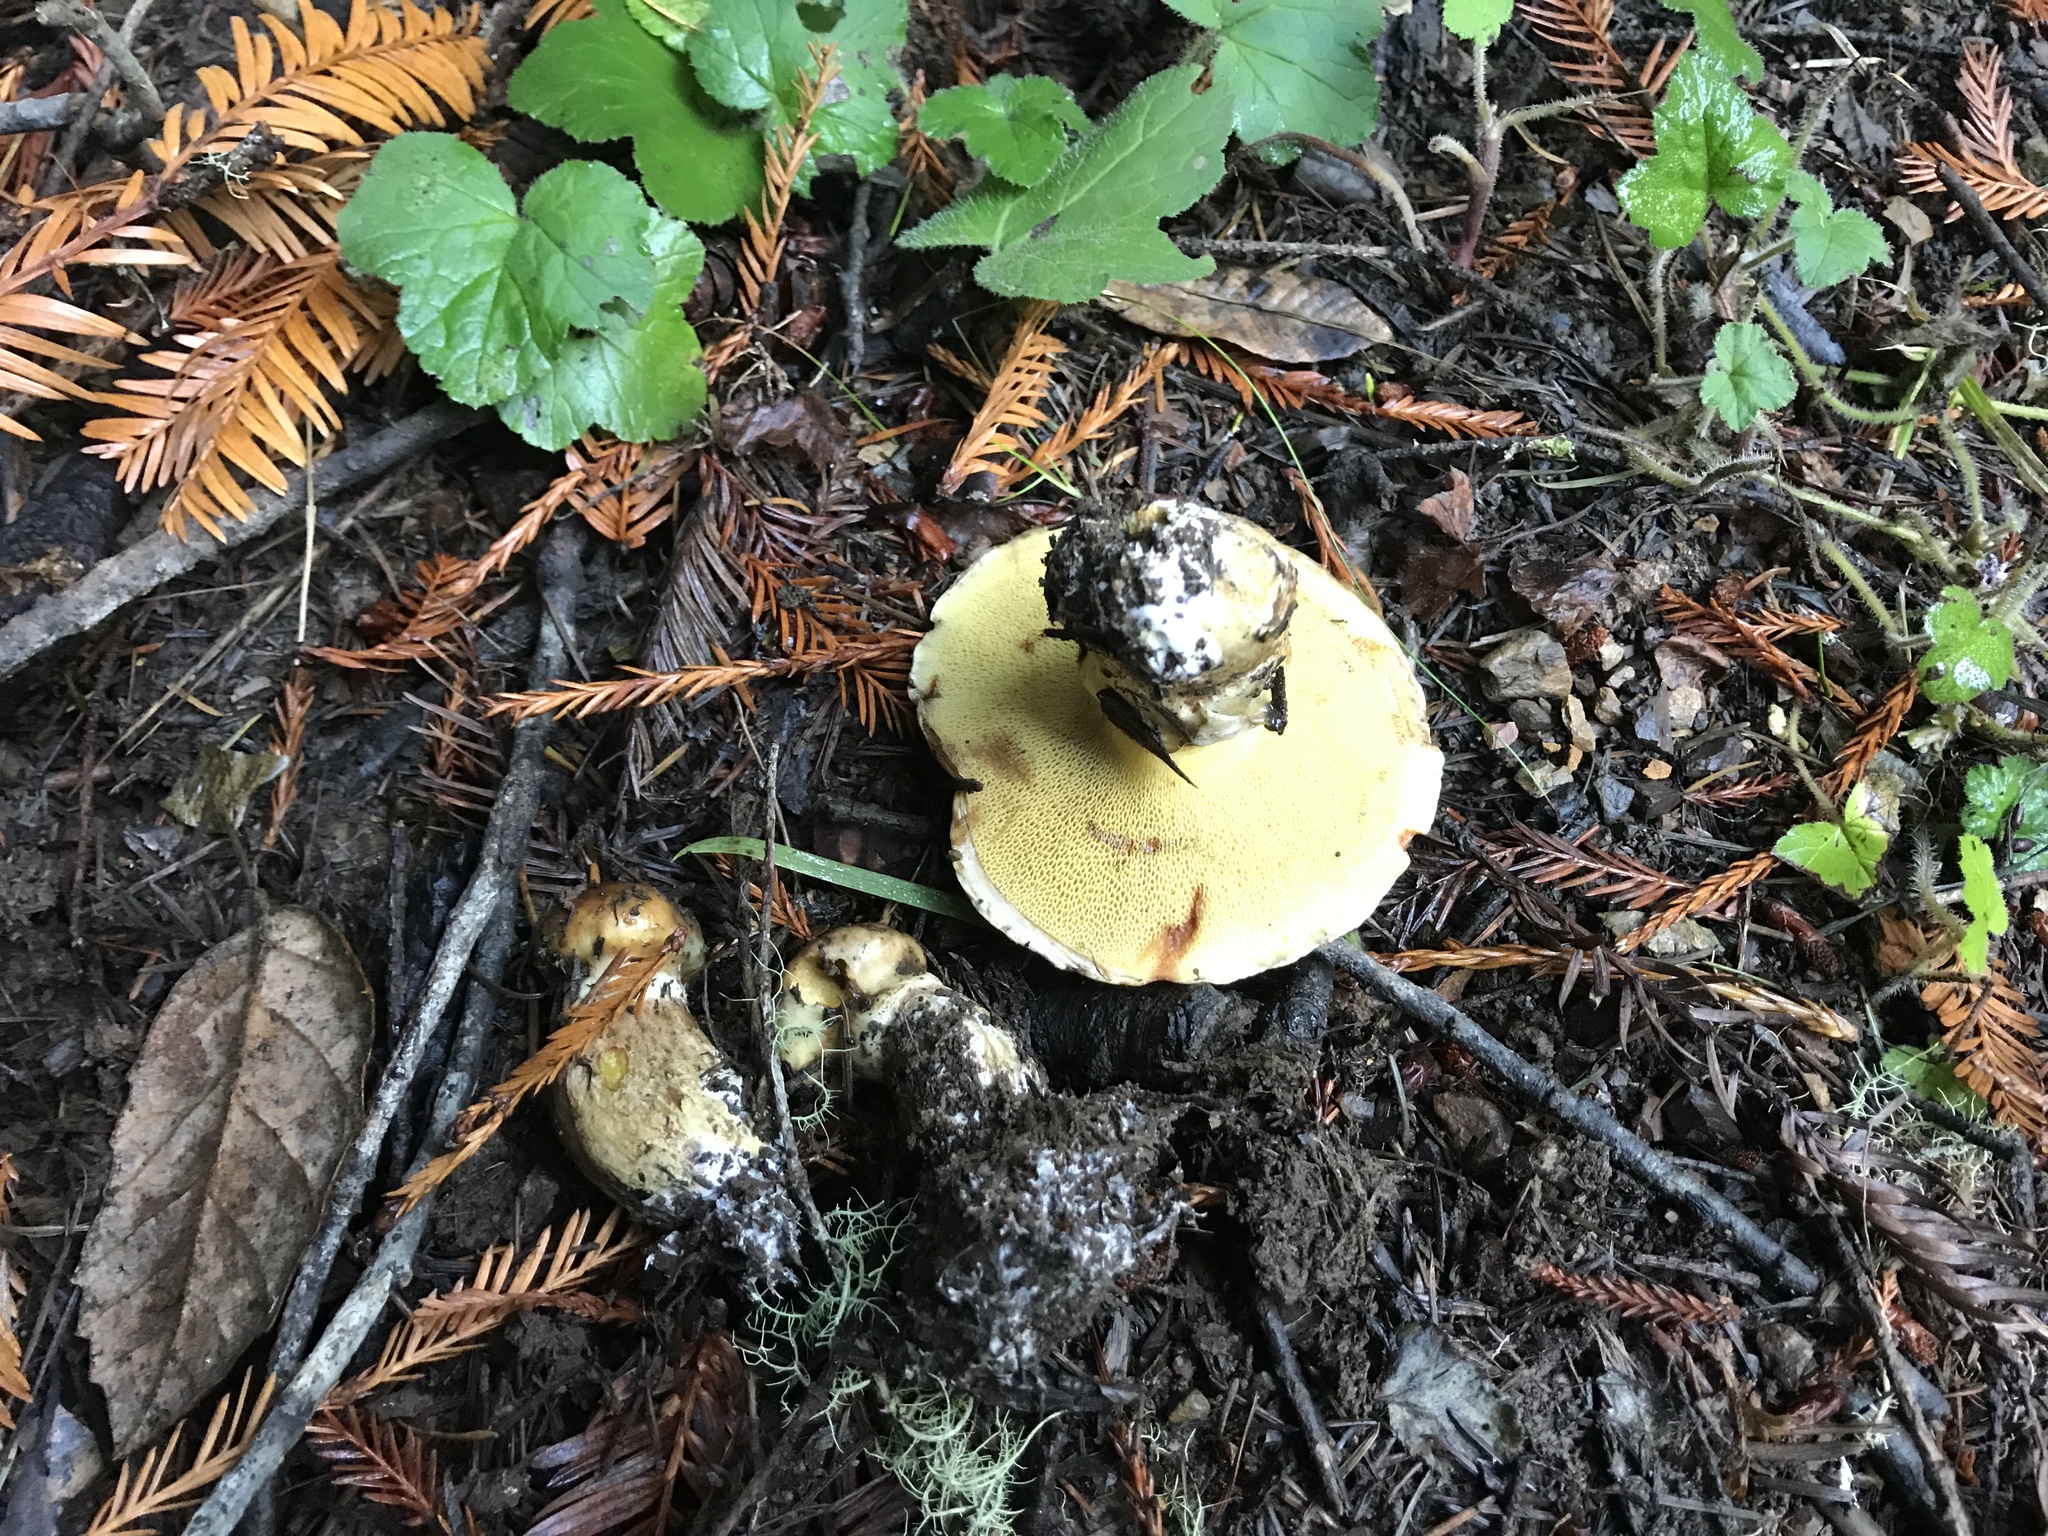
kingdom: Fungi
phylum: Basidiomycota
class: Agaricomycetes
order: Boletales
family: Suillaceae
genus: Suillus
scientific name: Suillus caerulescens
